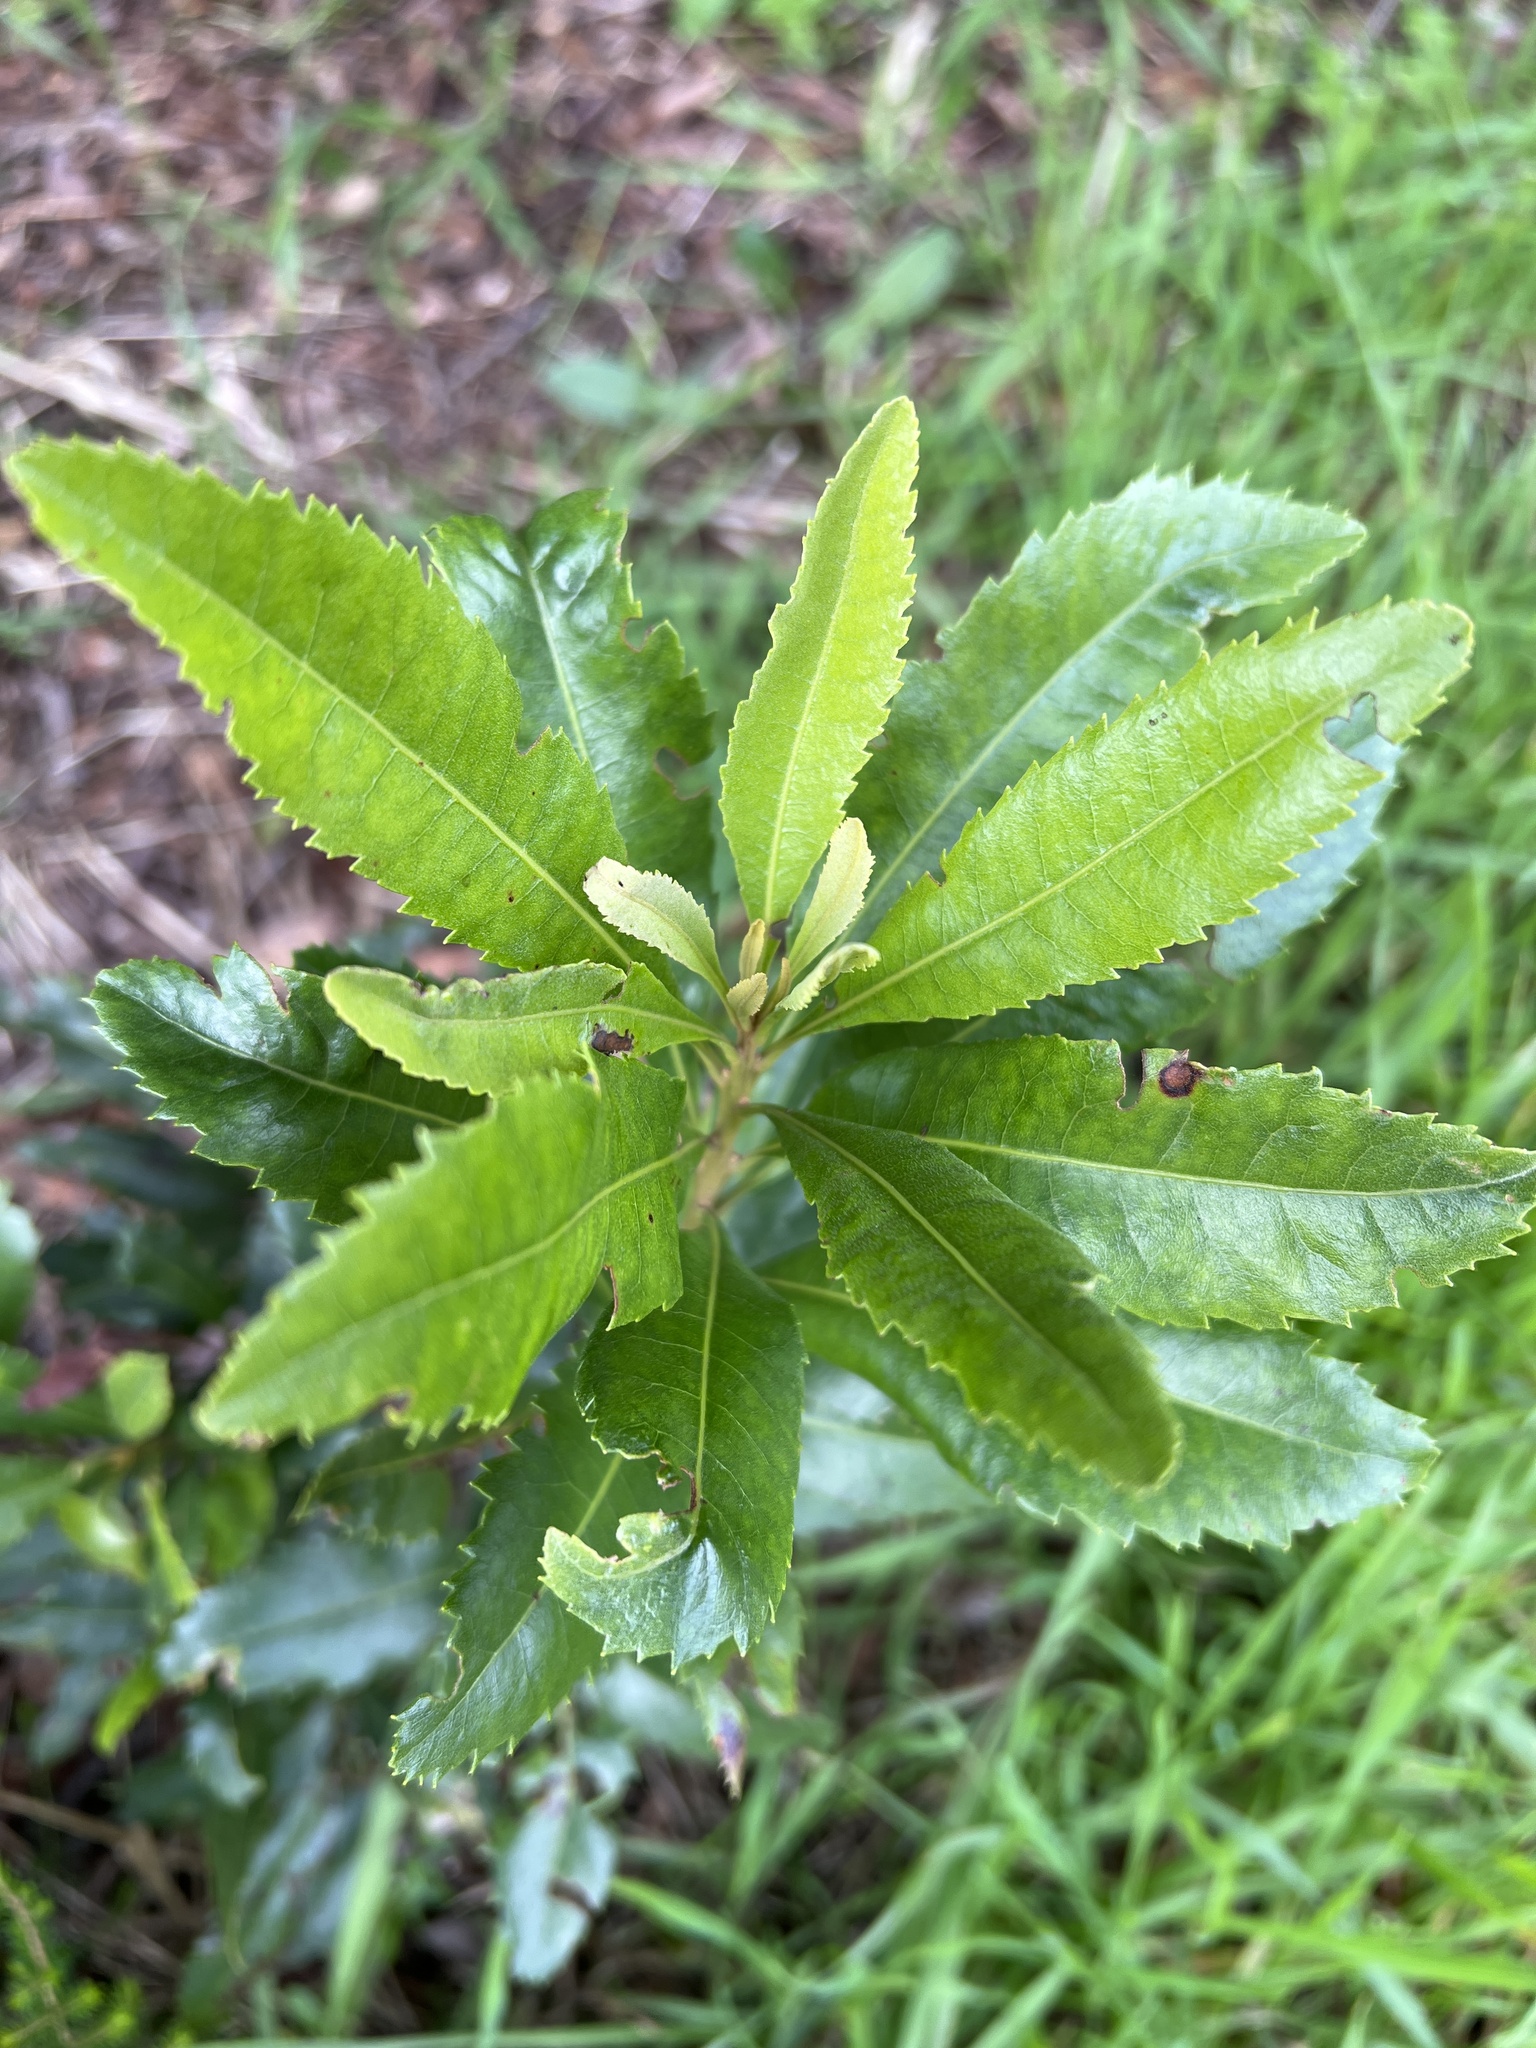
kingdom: Plantae
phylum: Tracheophyta
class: Magnoliopsida
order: Fagales
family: Myricaceae
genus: Morella
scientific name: Morella faya
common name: Firetree
